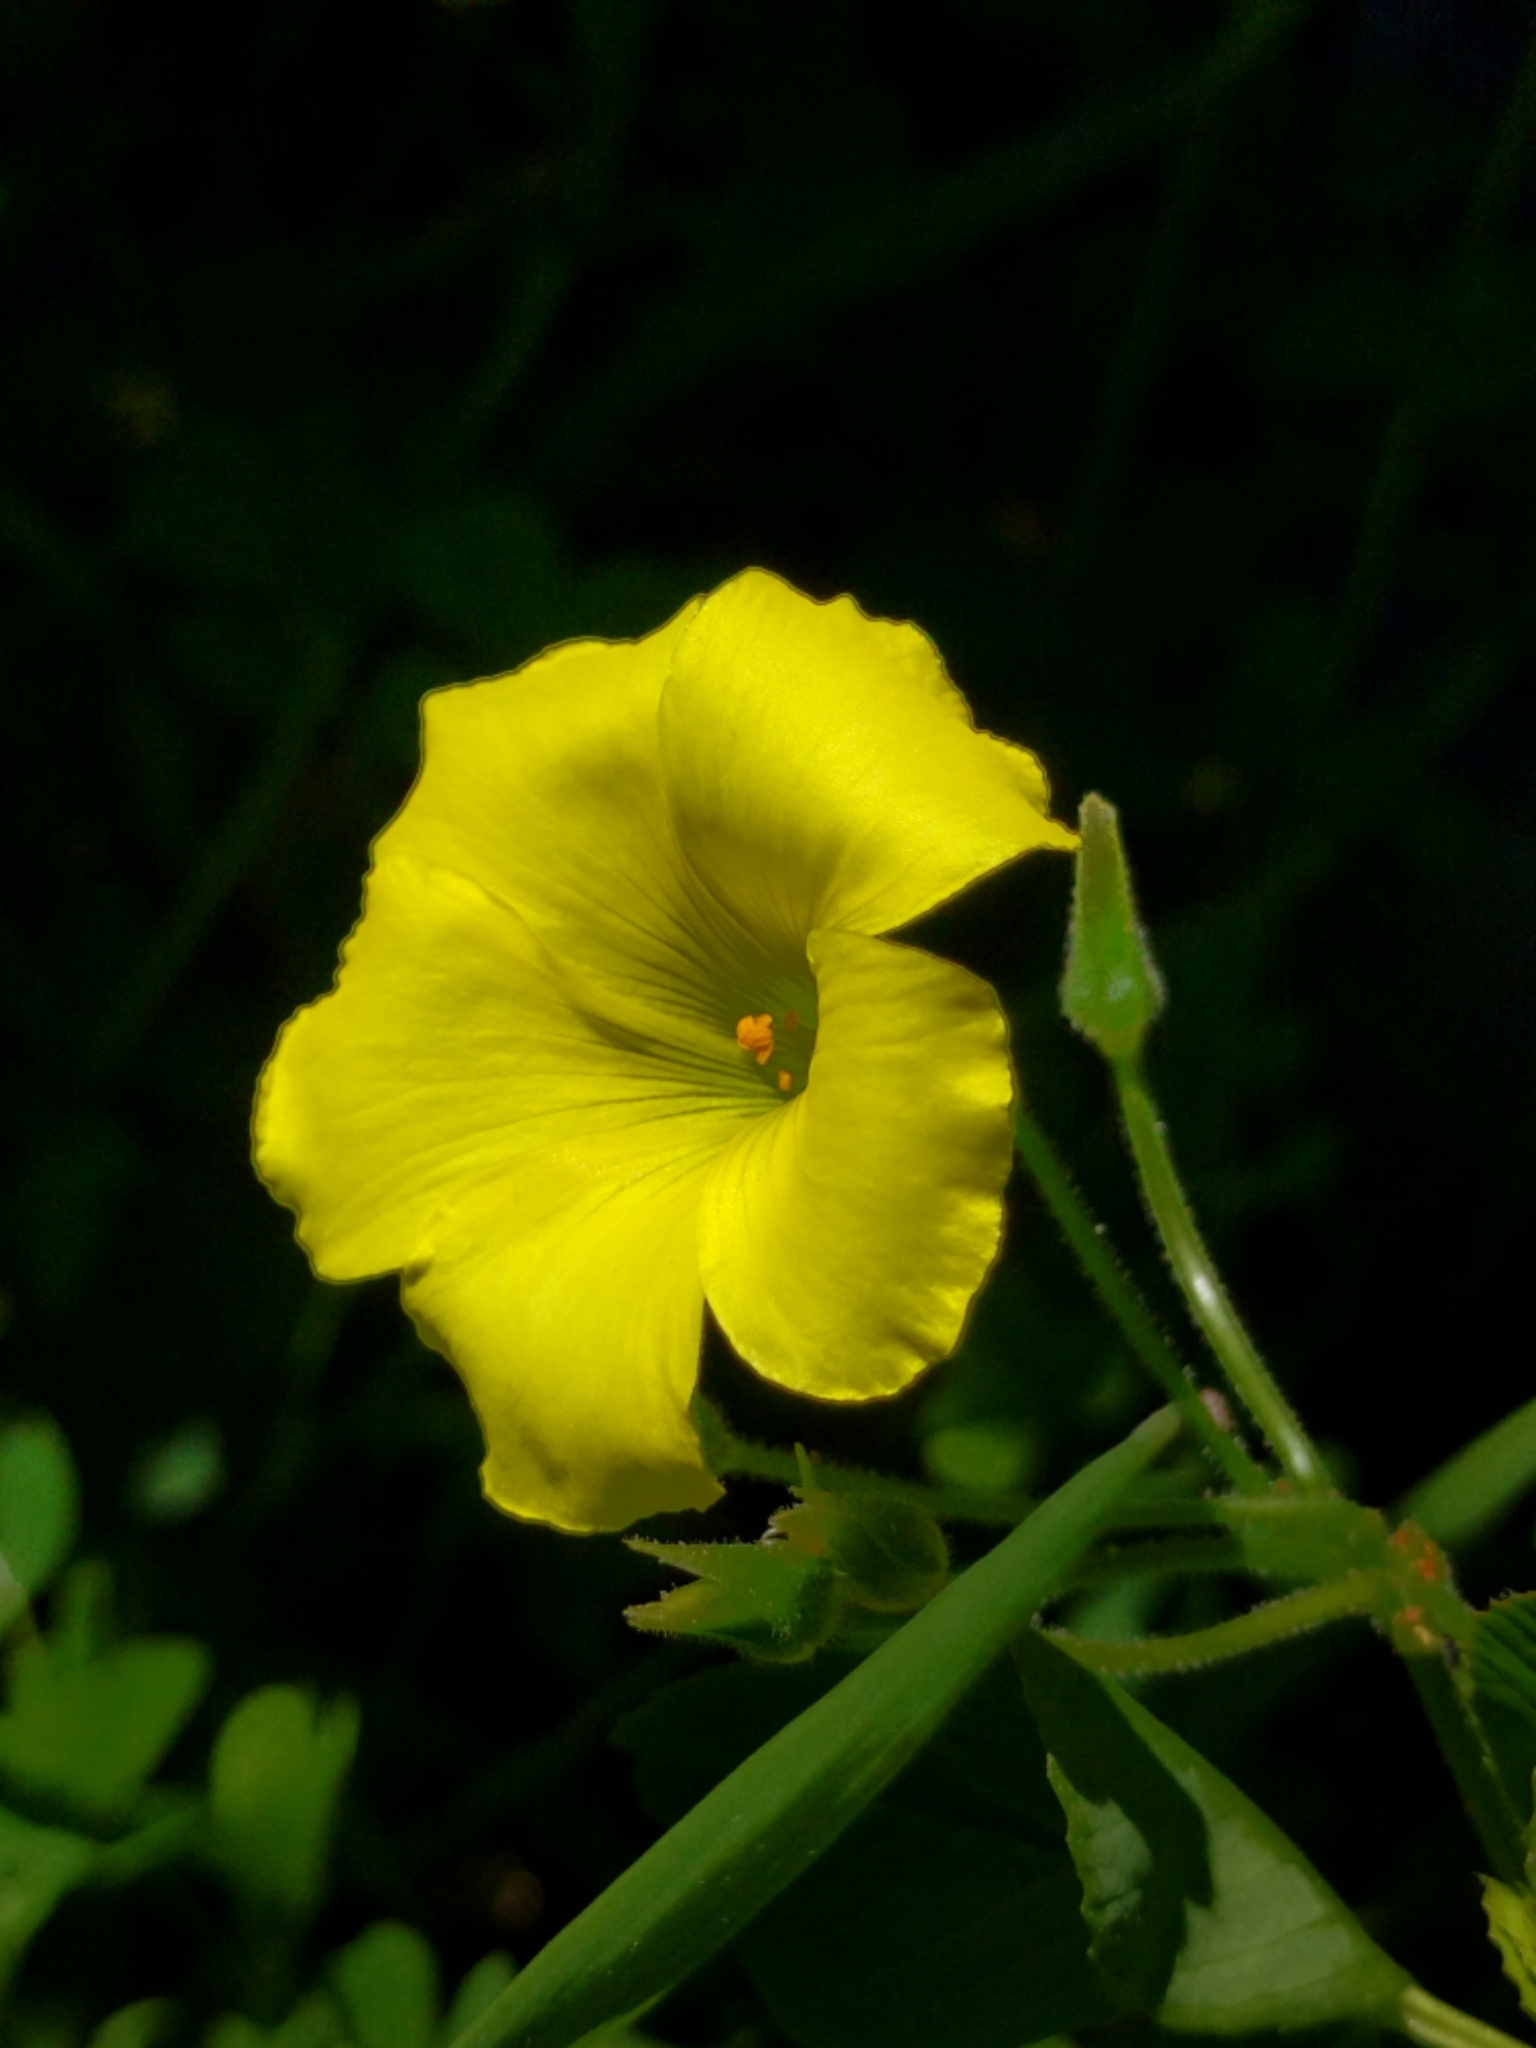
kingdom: Plantae
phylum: Tracheophyta
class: Magnoliopsida
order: Oxalidales
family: Oxalidaceae
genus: Oxalis
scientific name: Oxalis pes-caprae
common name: Bermuda-buttercup
